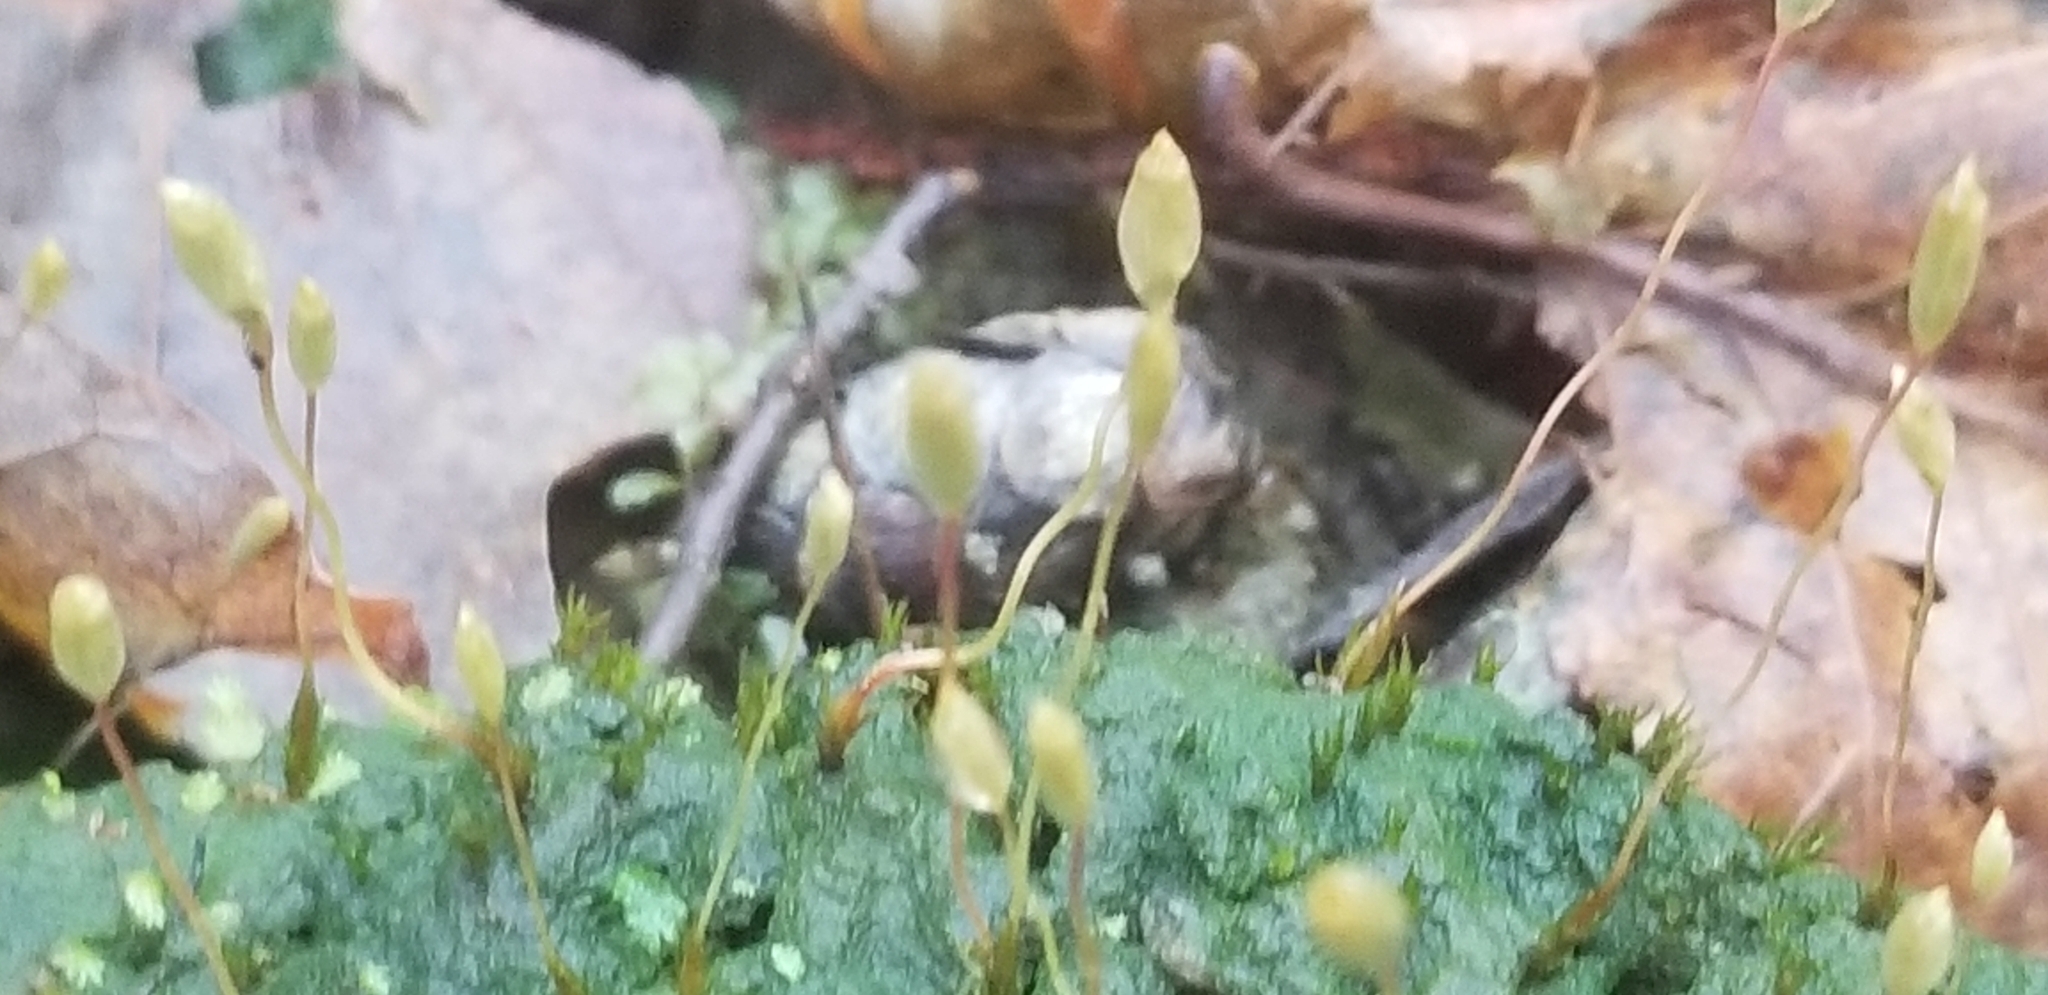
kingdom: Plantae
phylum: Bryophyta
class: Polytrichopsida
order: Polytrichales
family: Polytrichaceae
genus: Pogonatum
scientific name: Pogonatum pensilvanicum
